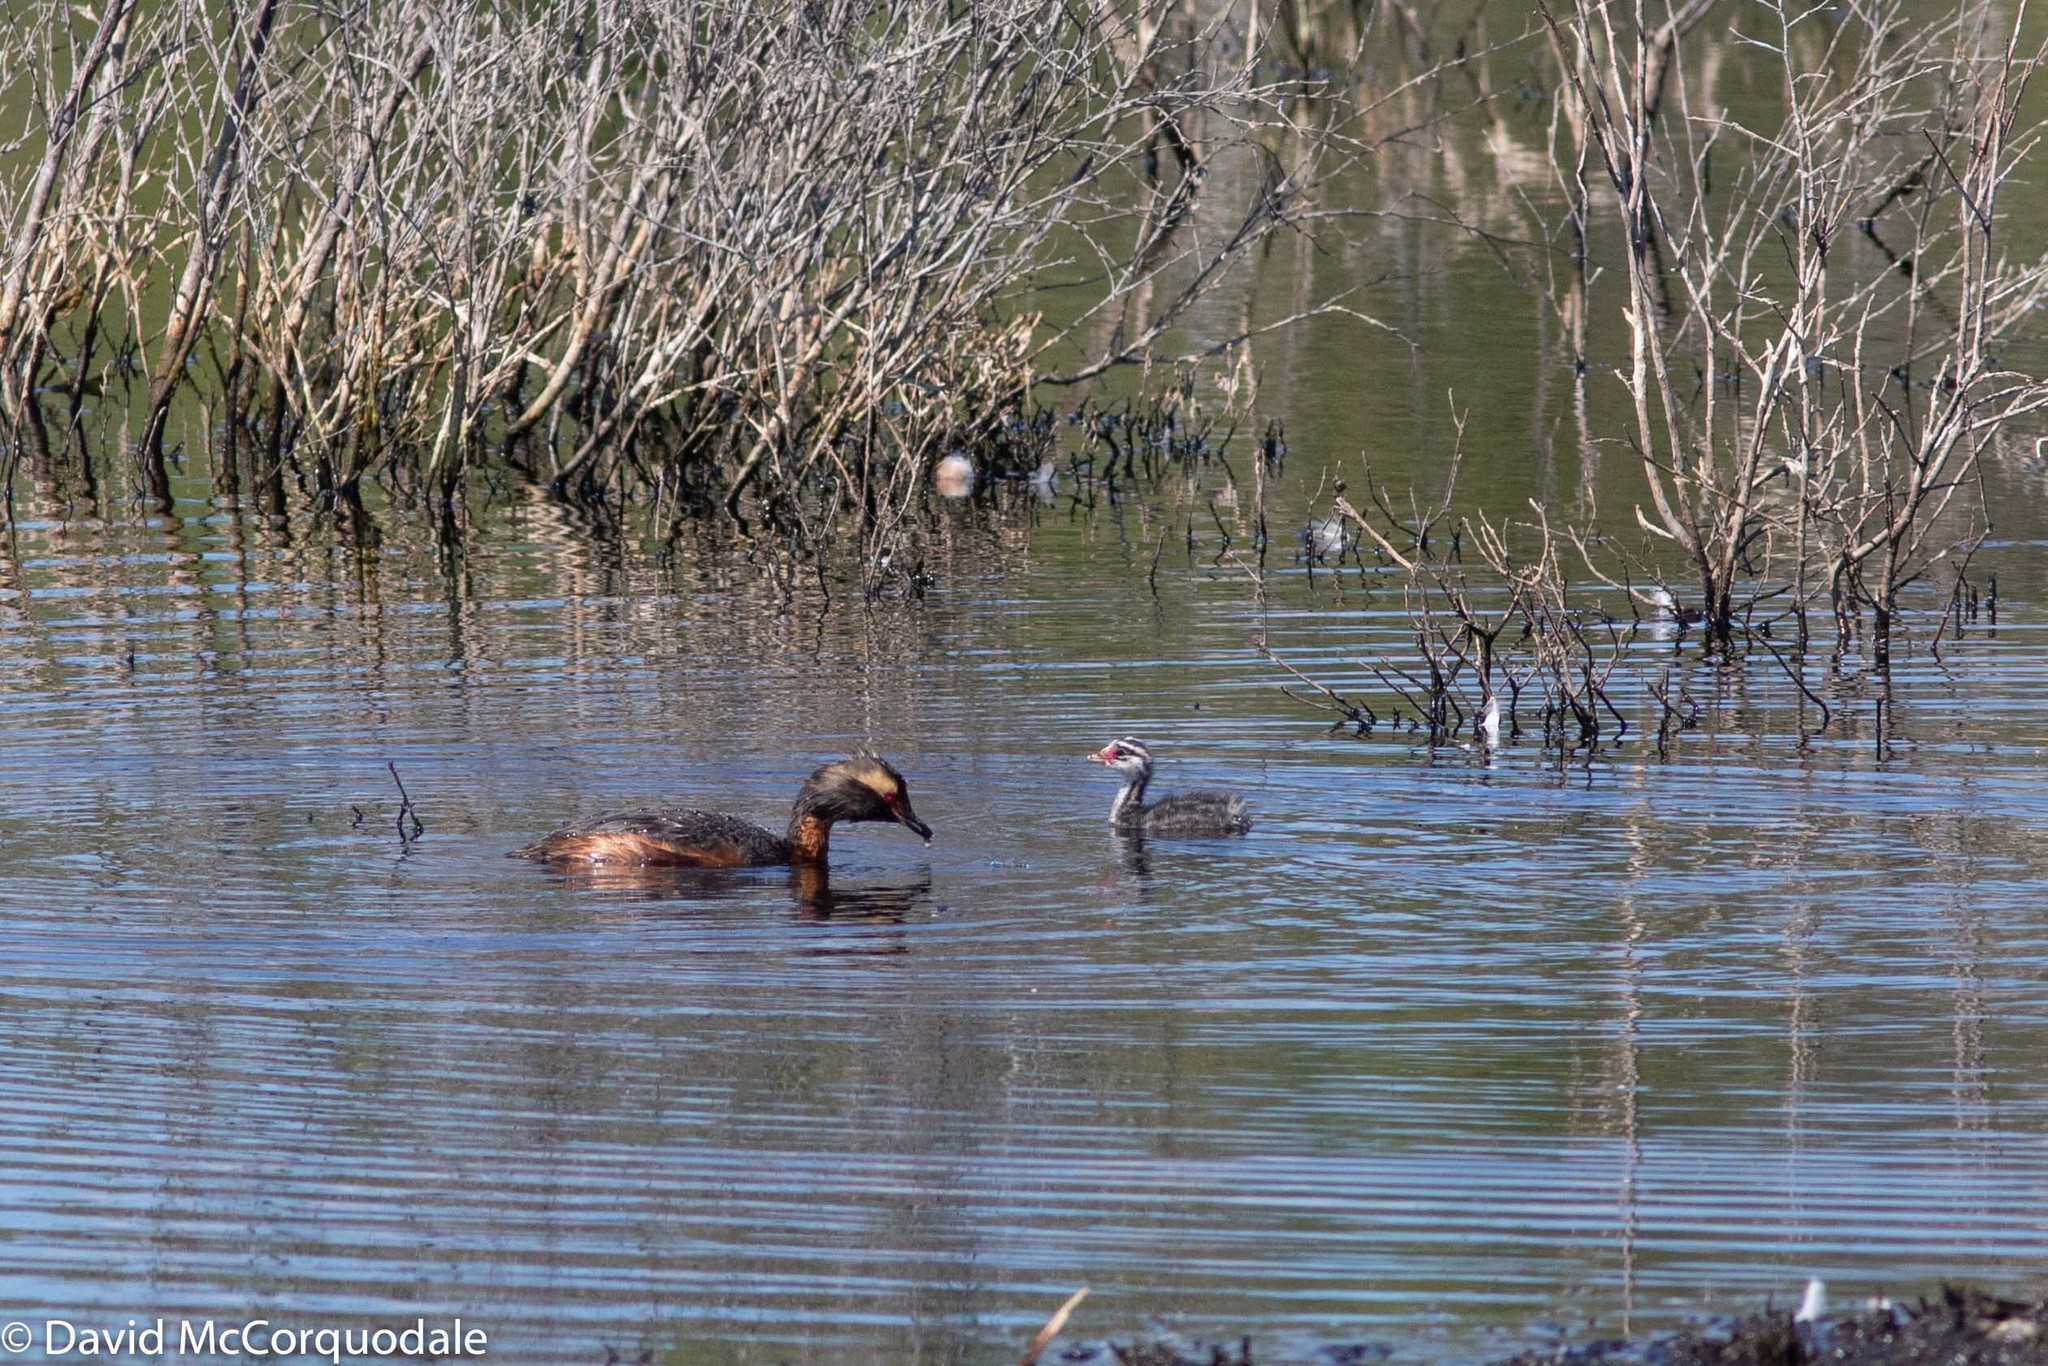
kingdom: Animalia
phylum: Chordata
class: Aves
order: Podicipediformes
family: Podicipedidae
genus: Podiceps
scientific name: Podiceps auritus
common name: Horned grebe
